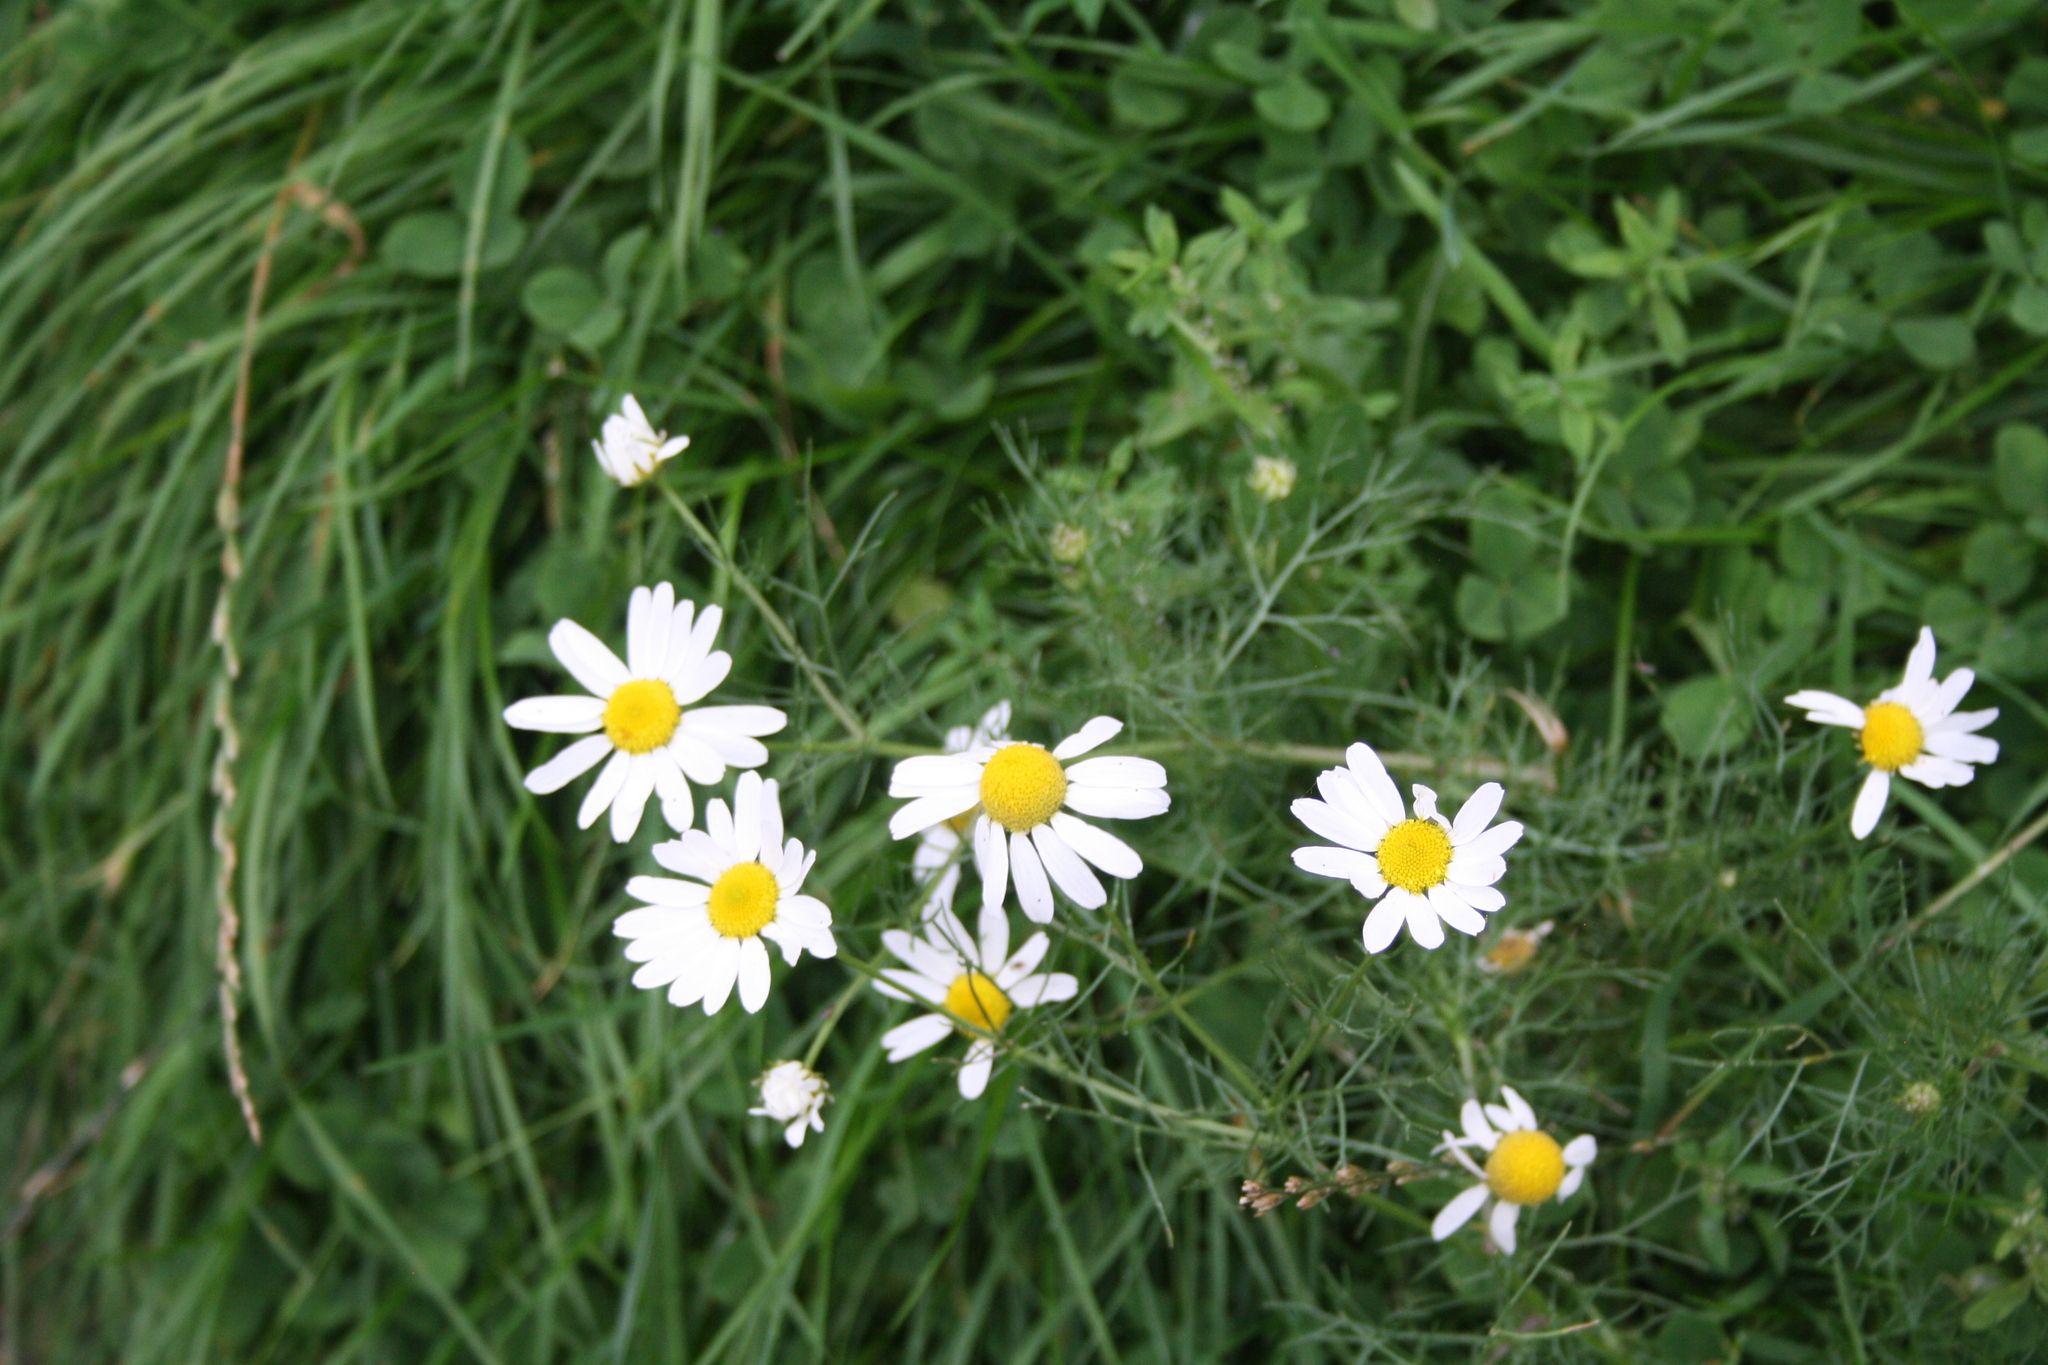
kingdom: Plantae
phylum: Tracheophyta
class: Magnoliopsida
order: Asterales
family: Asteraceae
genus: Tripleurospermum
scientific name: Tripleurospermum inodorum
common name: Scentless mayweed
